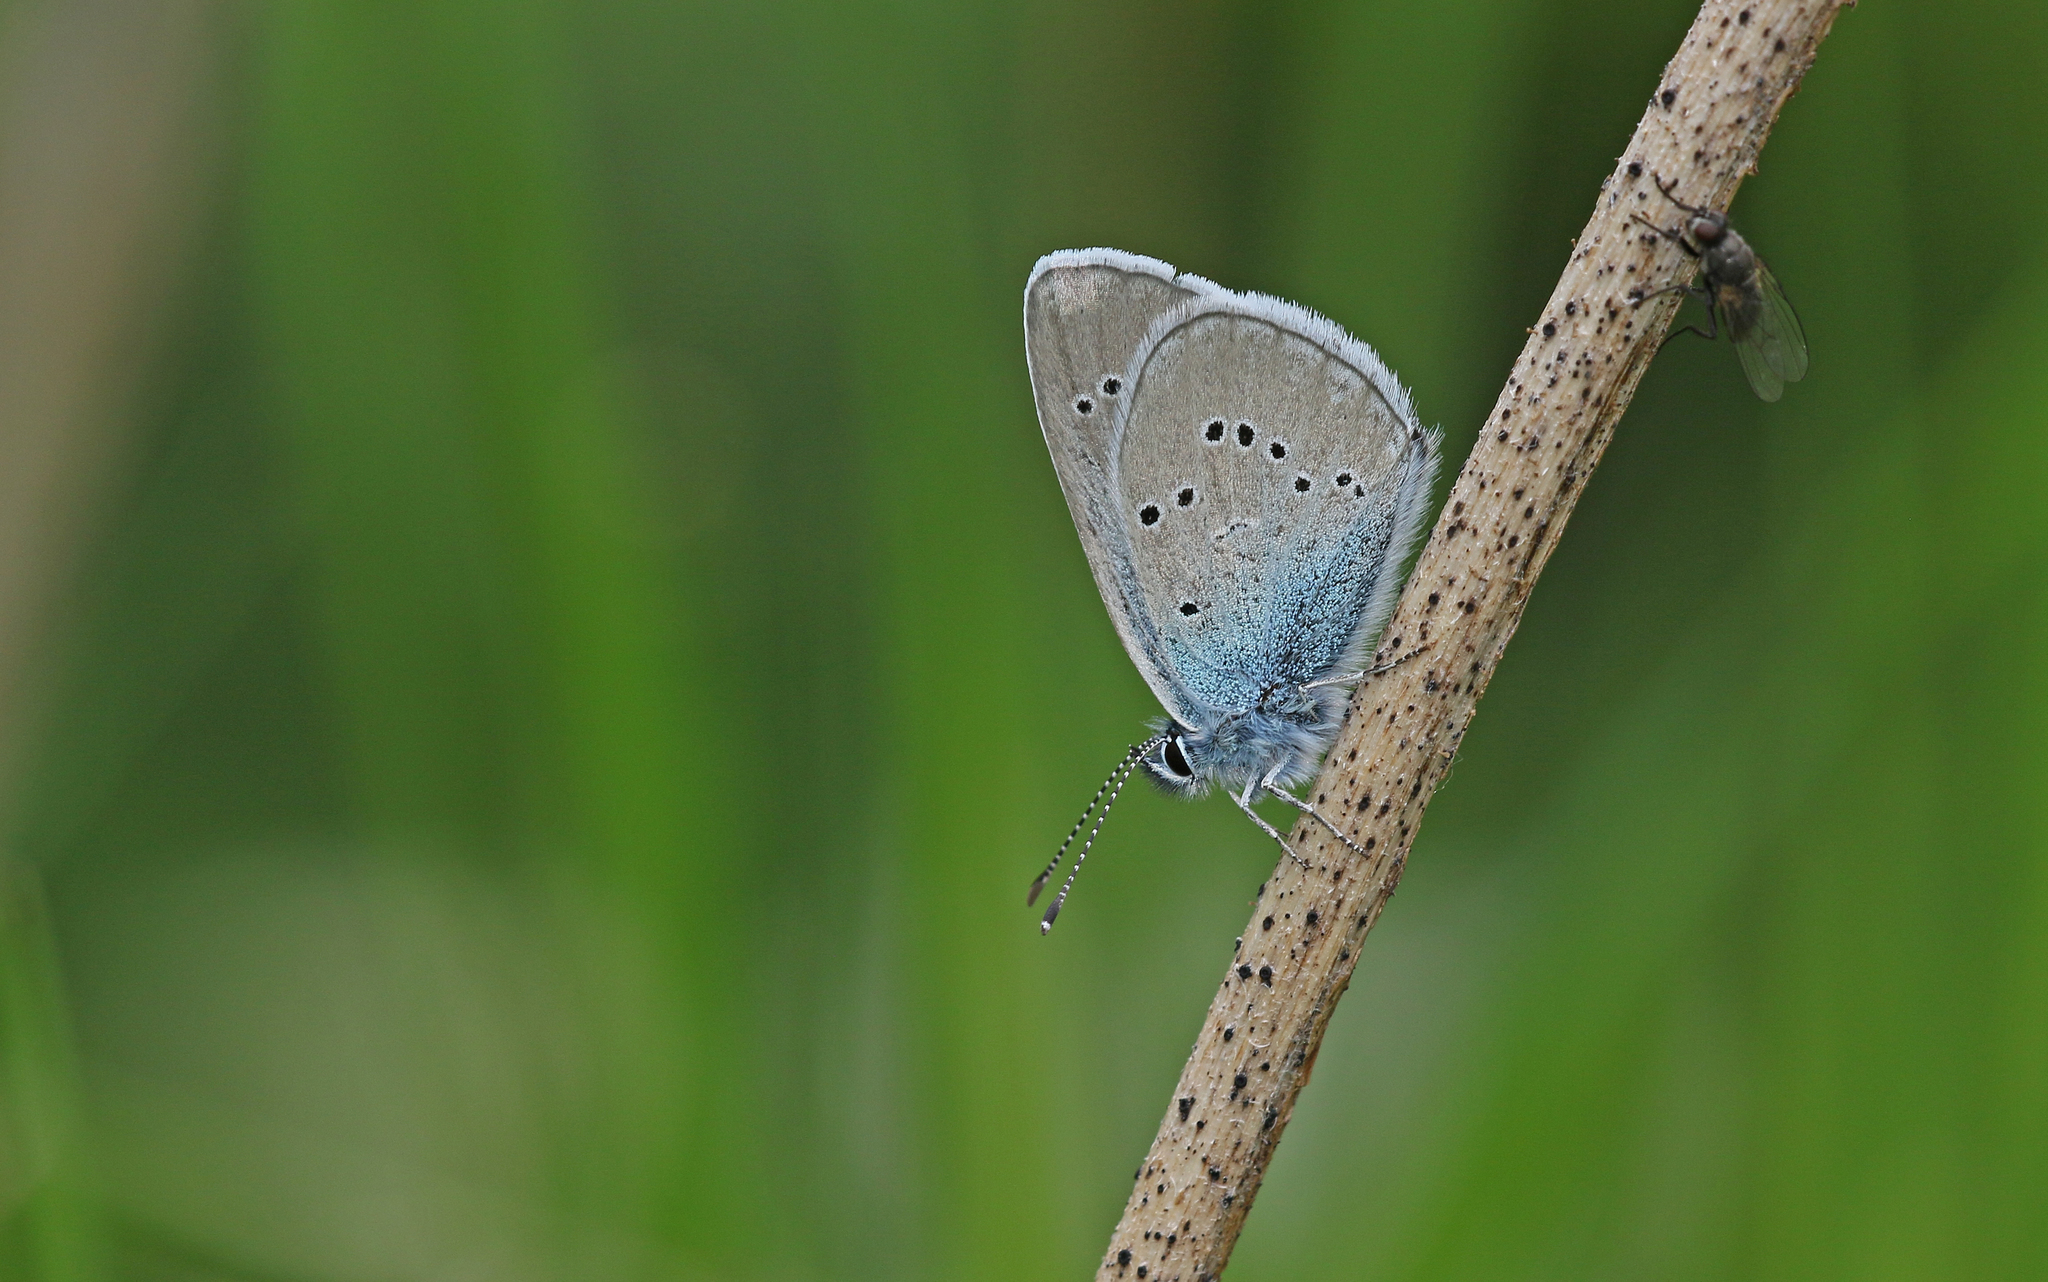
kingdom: Animalia
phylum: Arthropoda
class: Insecta
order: Lepidoptera
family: Lycaenidae
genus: Cyaniris
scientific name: Cyaniris semiargus
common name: Mazarine blue
